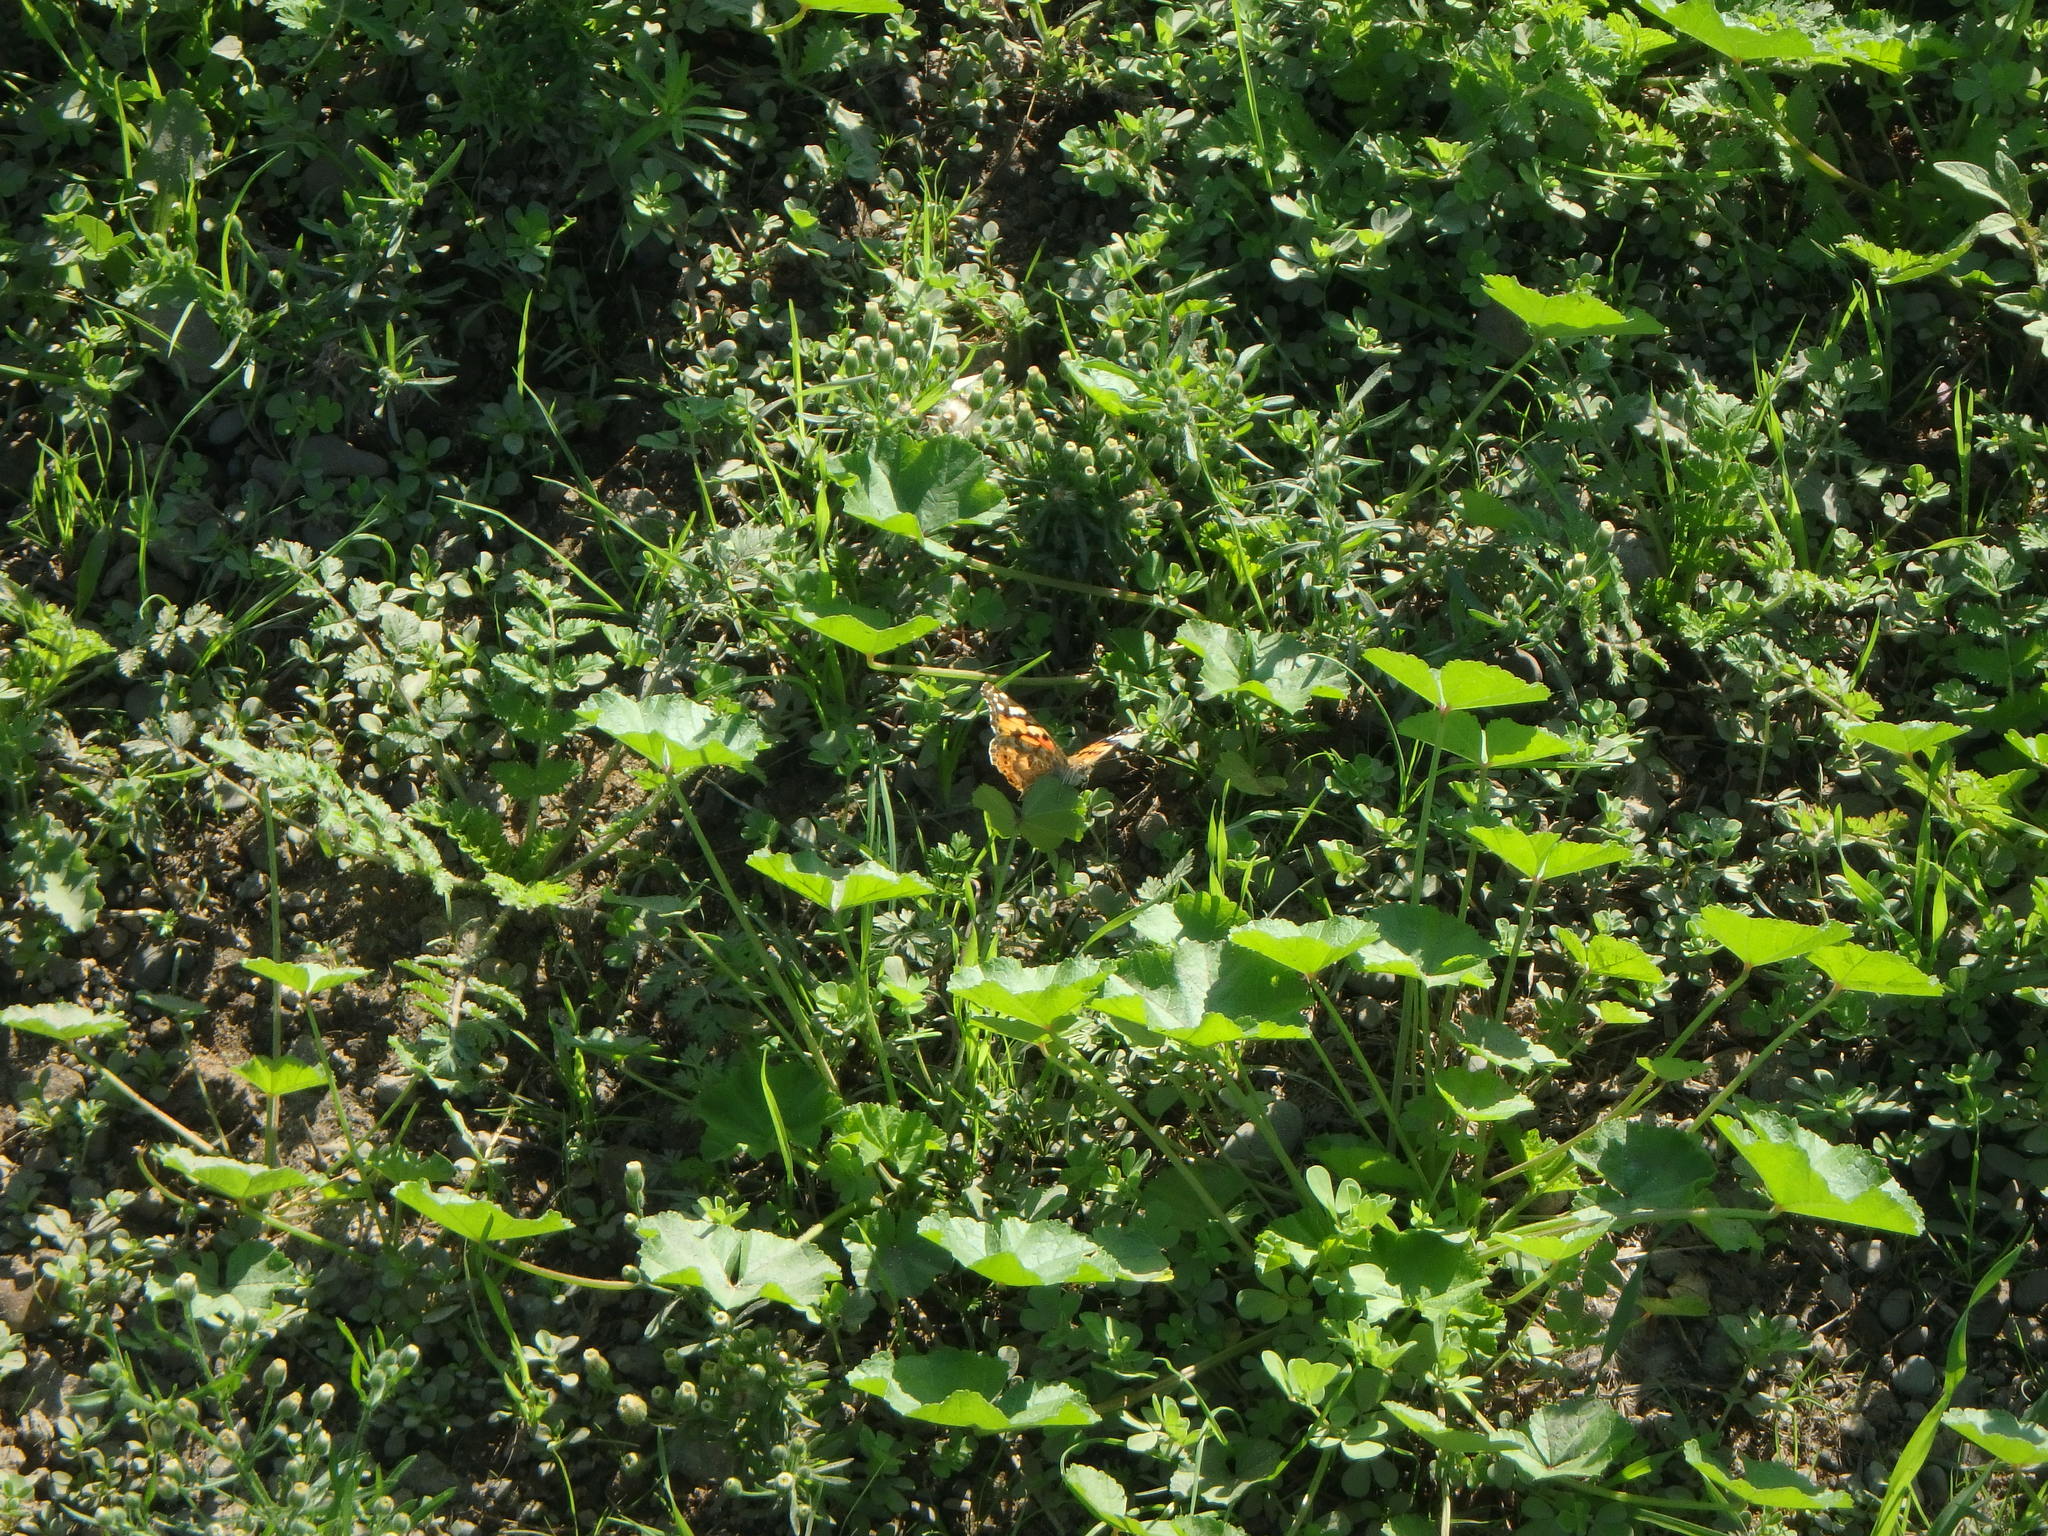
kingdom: Animalia
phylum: Arthropoda
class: Insecta
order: Lepidoptera
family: Nymphalidae
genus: Vanessa
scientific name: Vanessa cardui
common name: Painted lady
